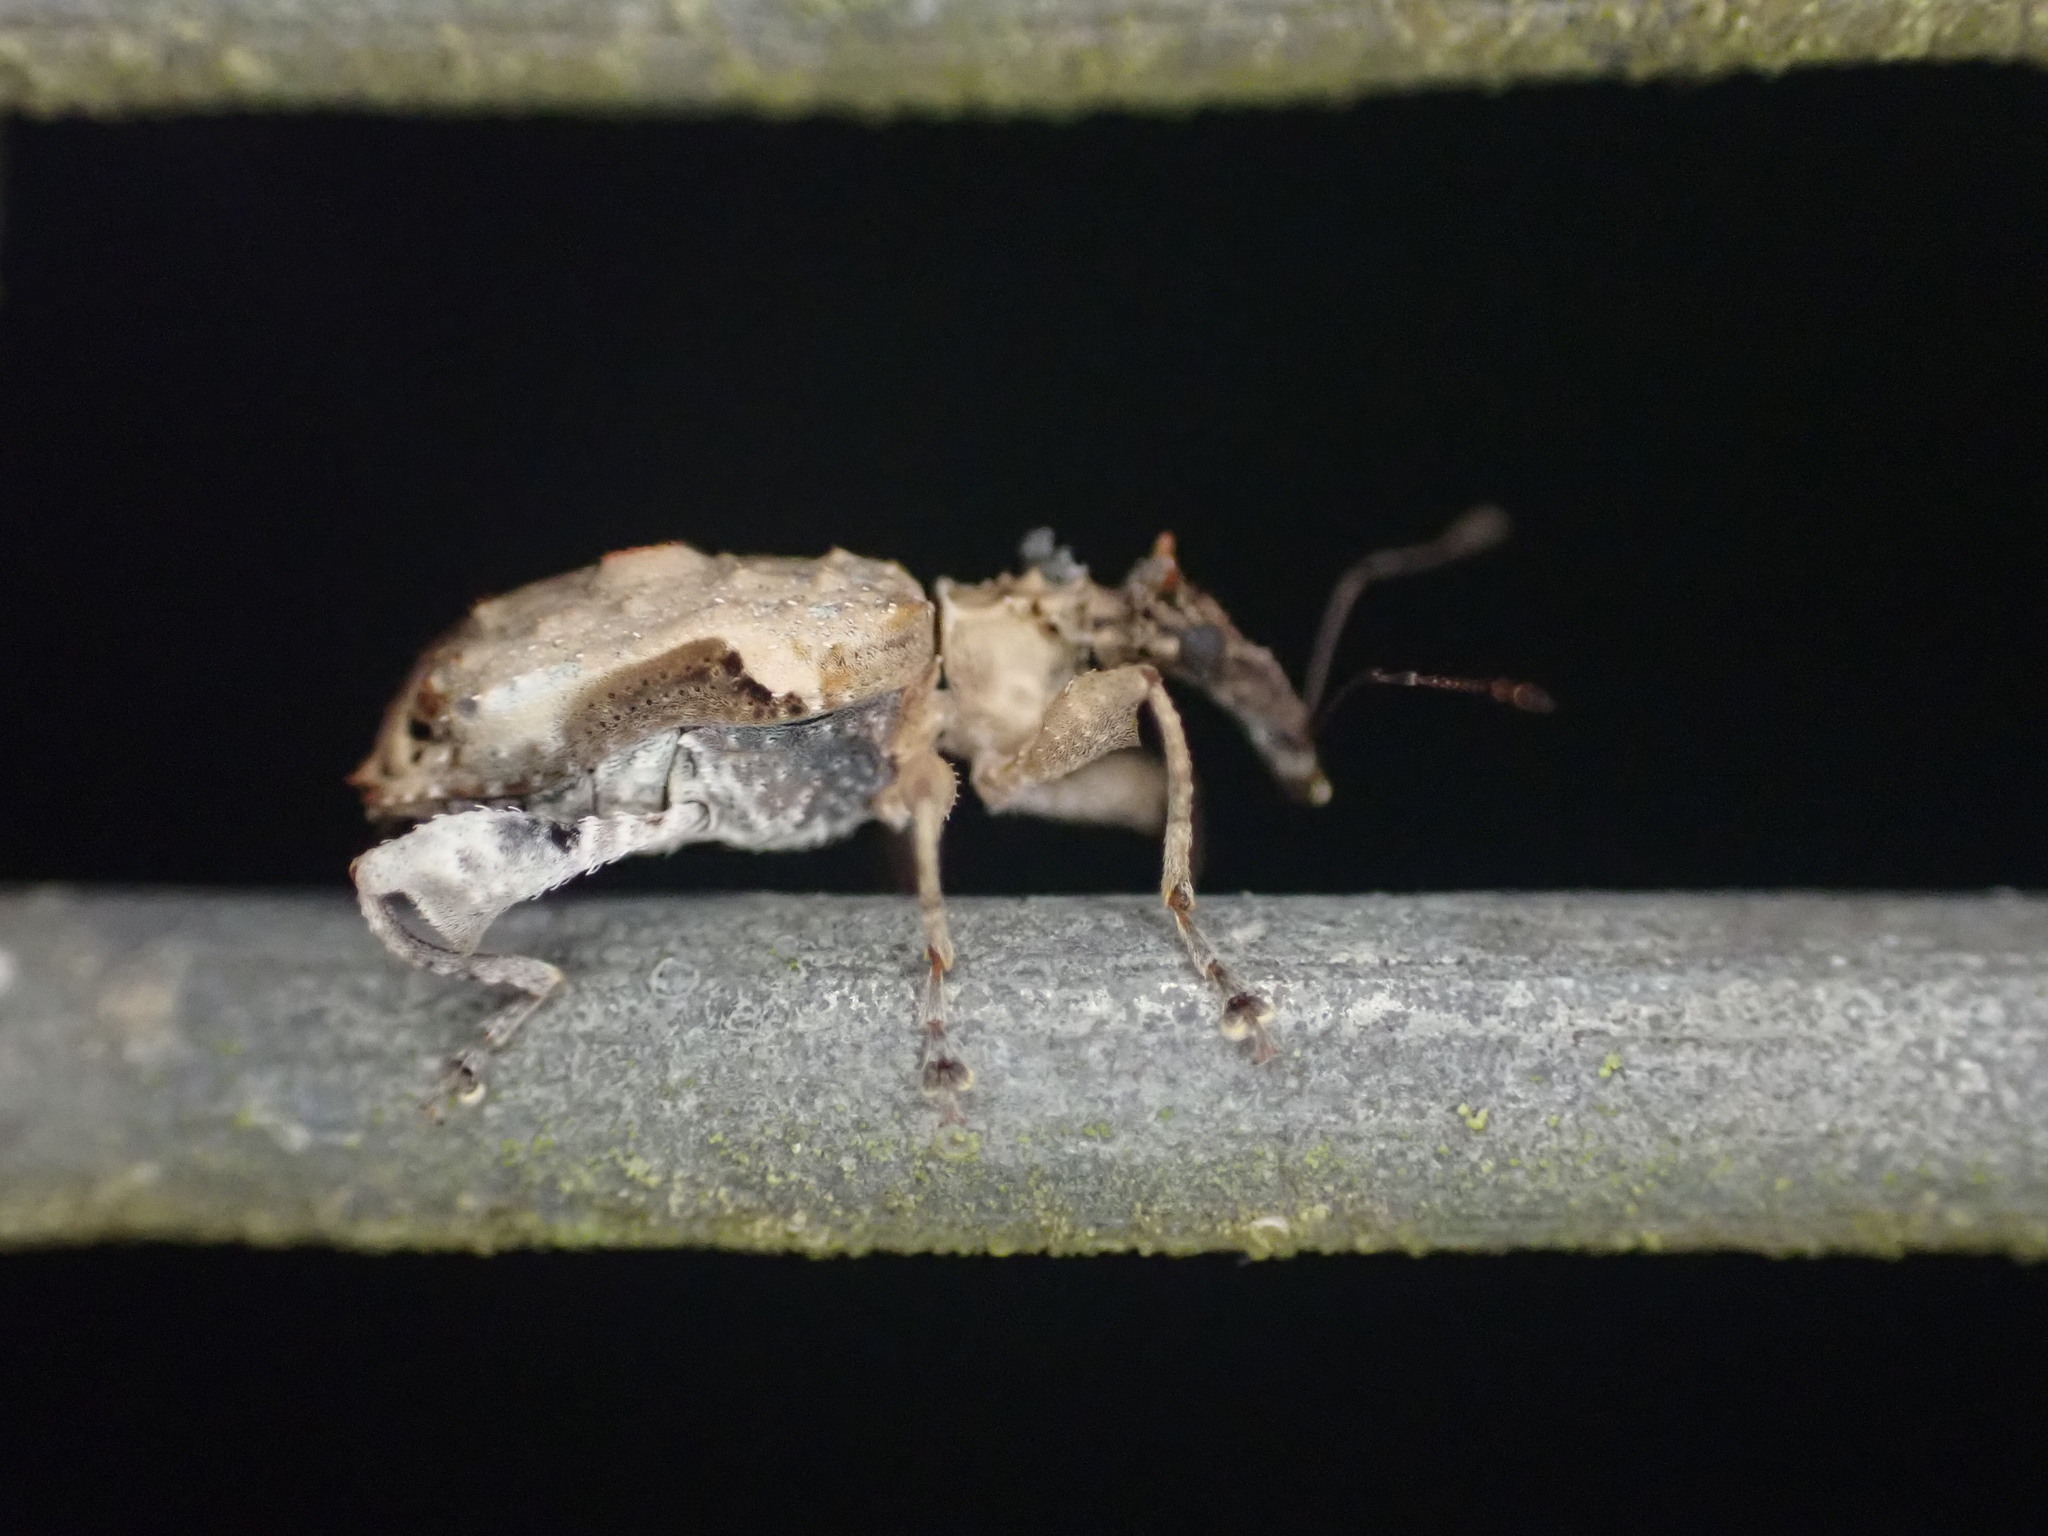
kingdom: Animalia
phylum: Arthropoda
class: Insecta
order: Coleoptera
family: Curculionidae
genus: Stephanorhynchus
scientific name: Stephanorhynchus curvipes
